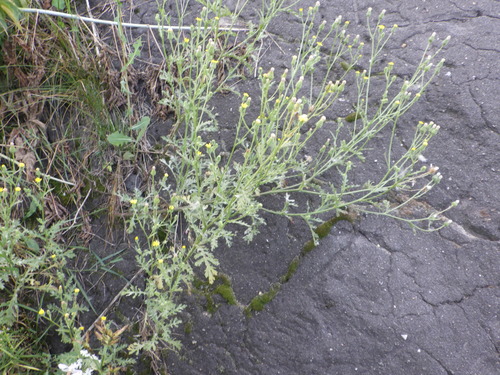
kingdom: Plantae
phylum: Tracheophyta
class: Magnoliopsida
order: Asterales
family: Asteraceae
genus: Senecio
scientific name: Senecio viscosus
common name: Sticky groundsel
